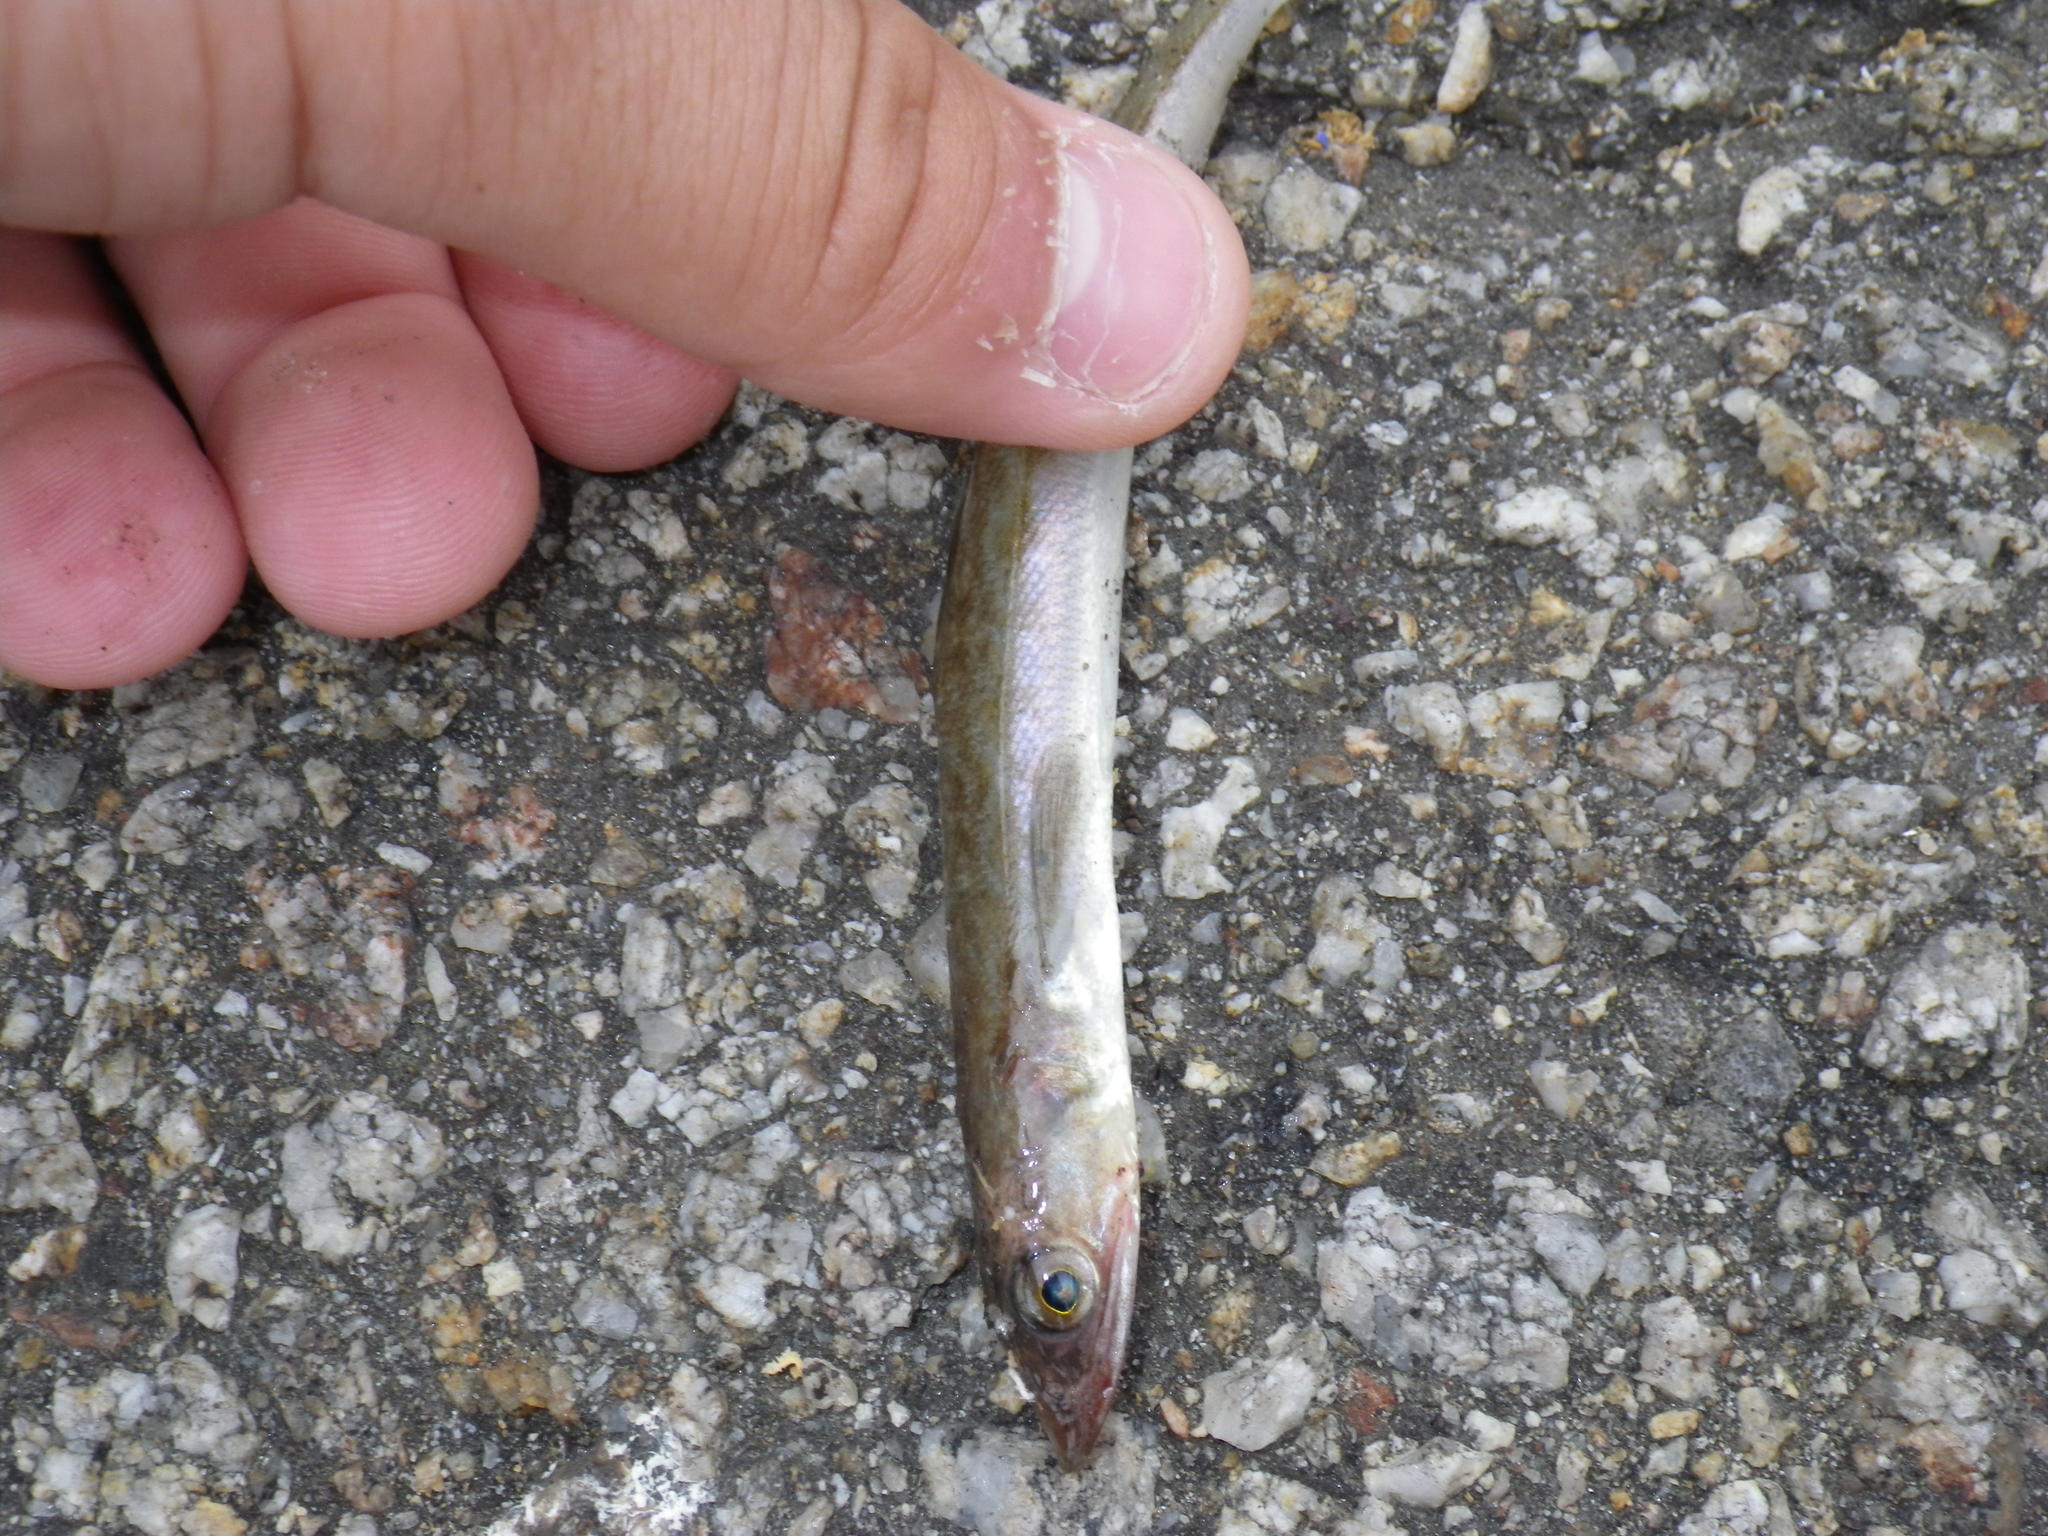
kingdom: Animalia
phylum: Chordata
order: Aulopiformes
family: Synodontidae
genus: Synodus
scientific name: Synodus lucioceps
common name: California lizardfish
